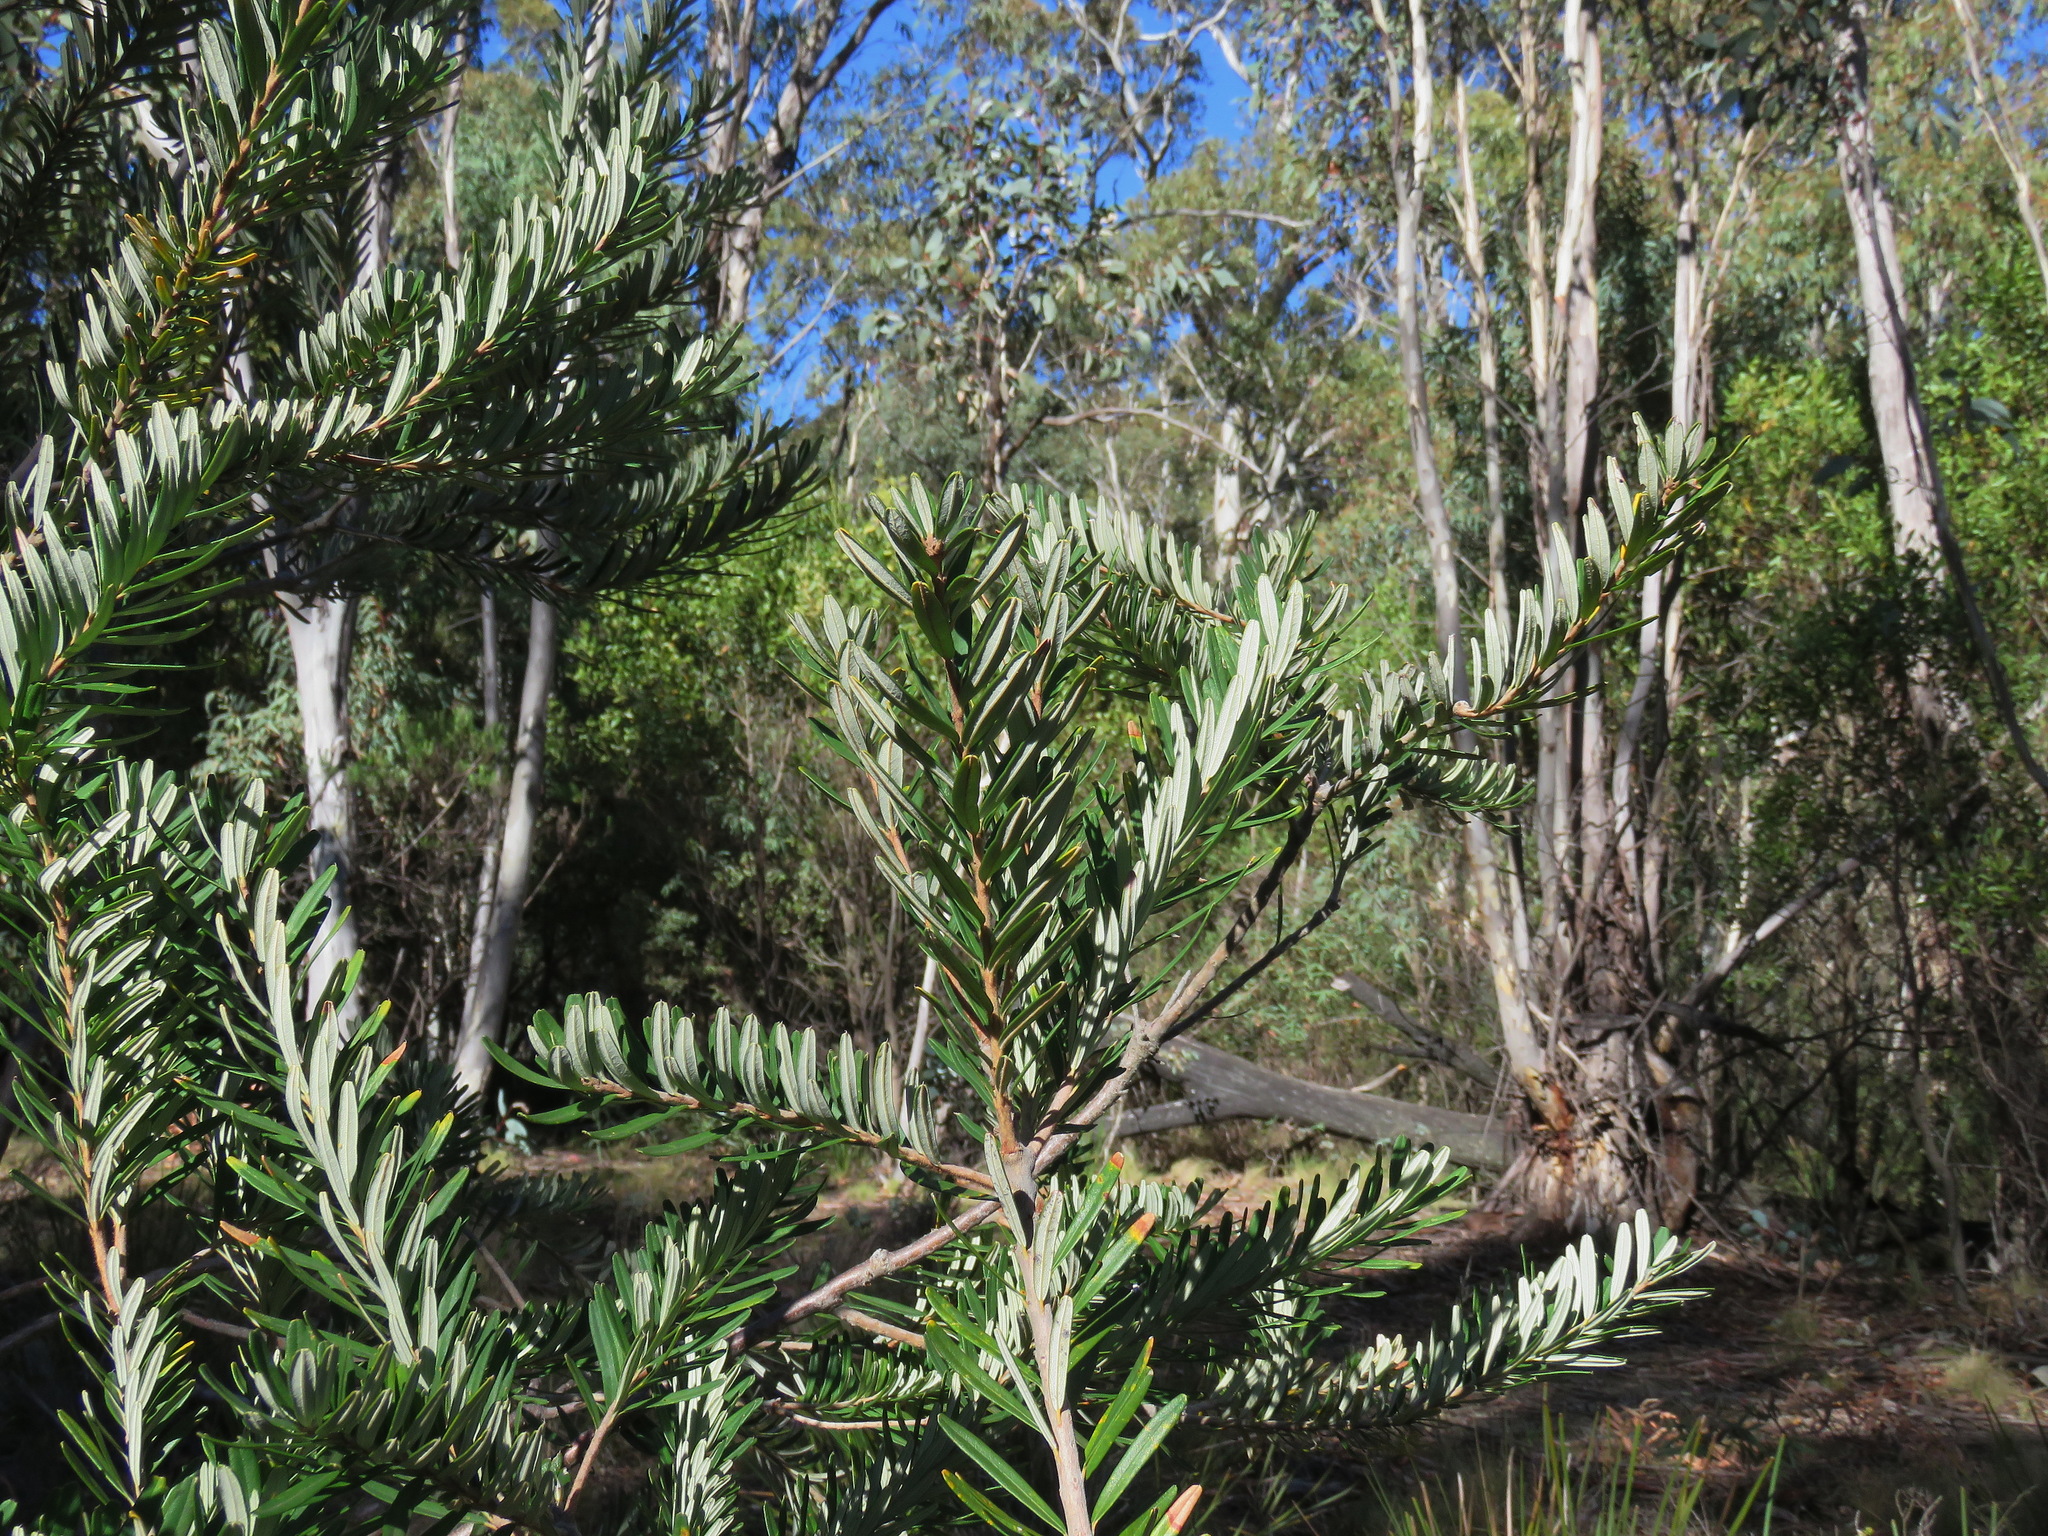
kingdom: Plantae
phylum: Tracheophyta
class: Magnoliopsida
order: Proteales
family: Proteaceae
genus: Banksia
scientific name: Banksia marginata
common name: Silver banksia
